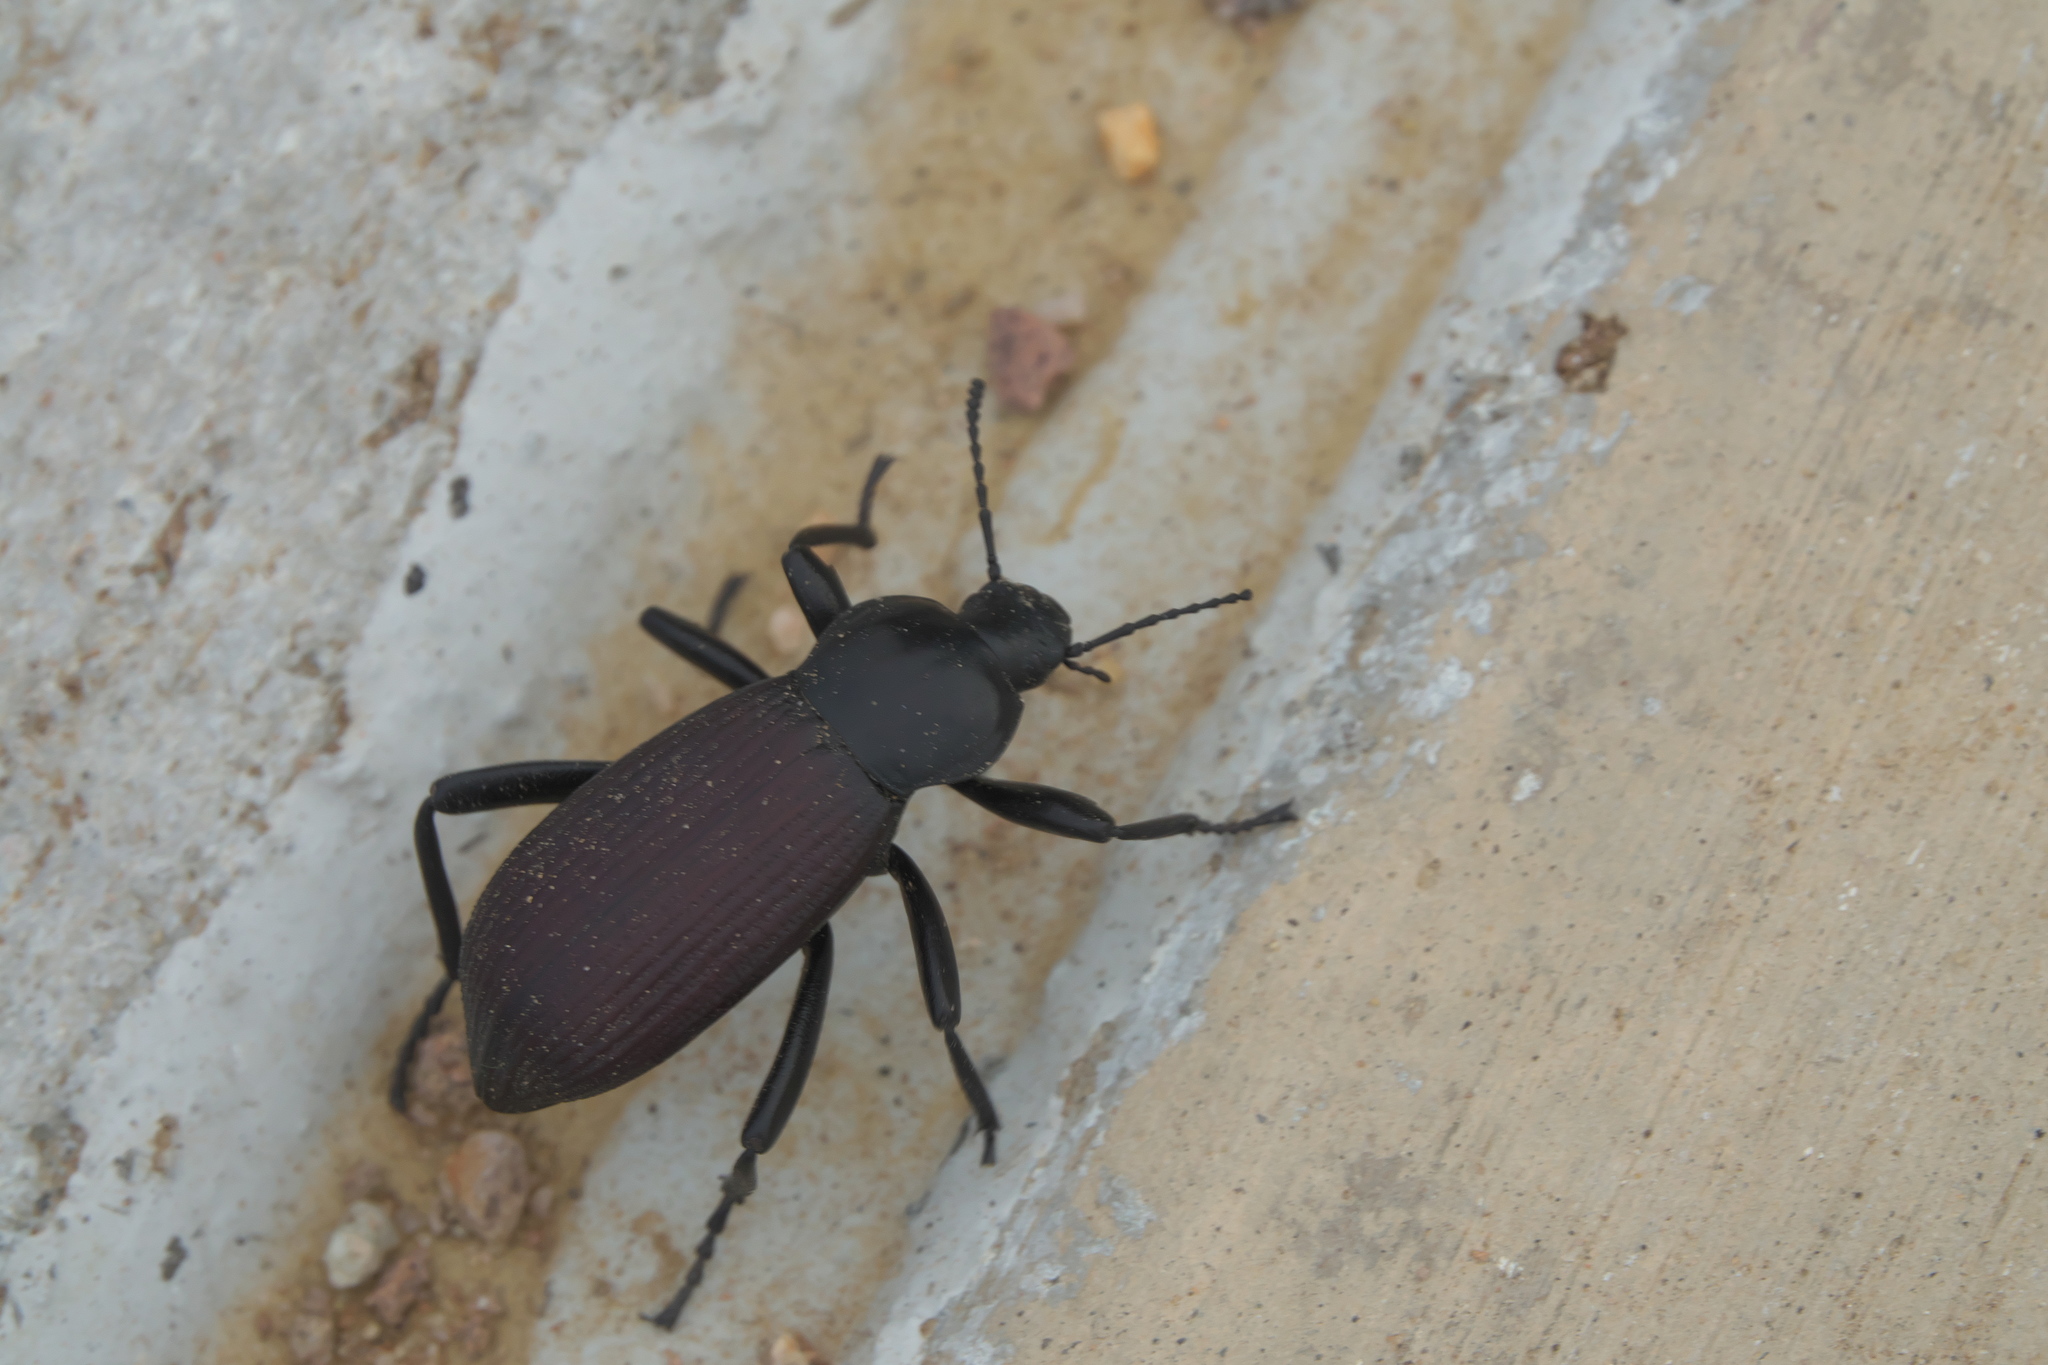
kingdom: Animalia
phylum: Arthropoda
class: Insecta
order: Coleoptera
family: Tenebrionidae
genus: Eleodes
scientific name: Eleodes obscura
